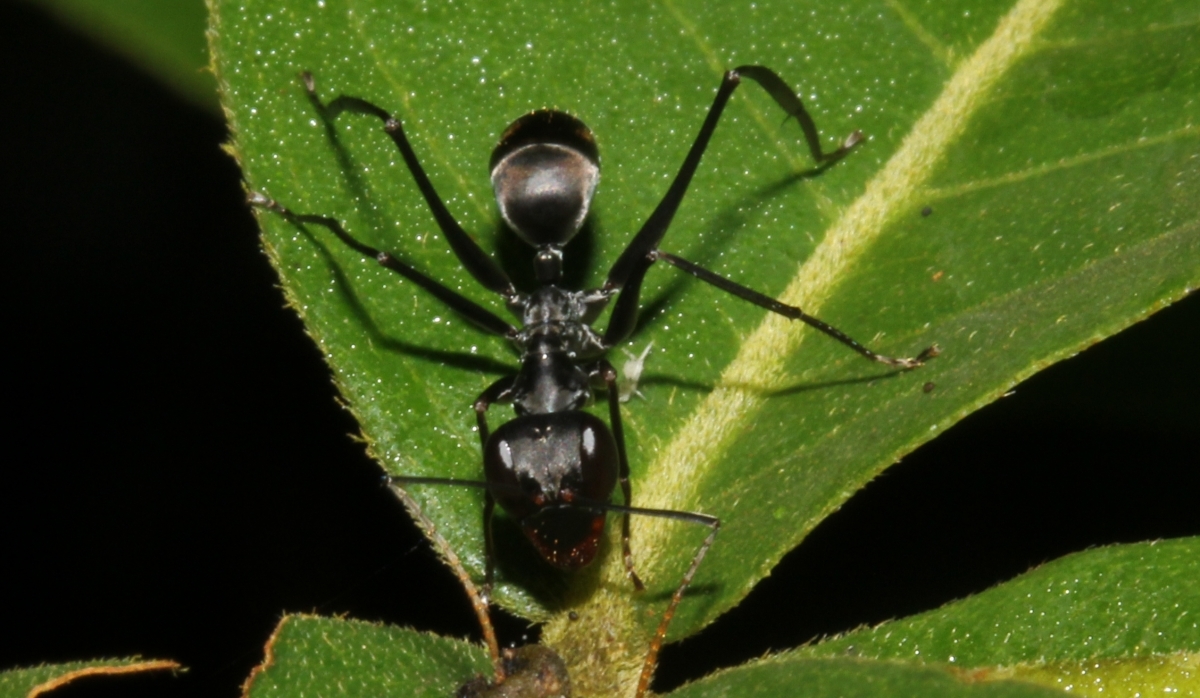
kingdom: Animalia
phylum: Arthropoda
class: Insecta
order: Hymenoptera
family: Formicidae
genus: Gigantiops
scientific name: Gigantiops destructor
